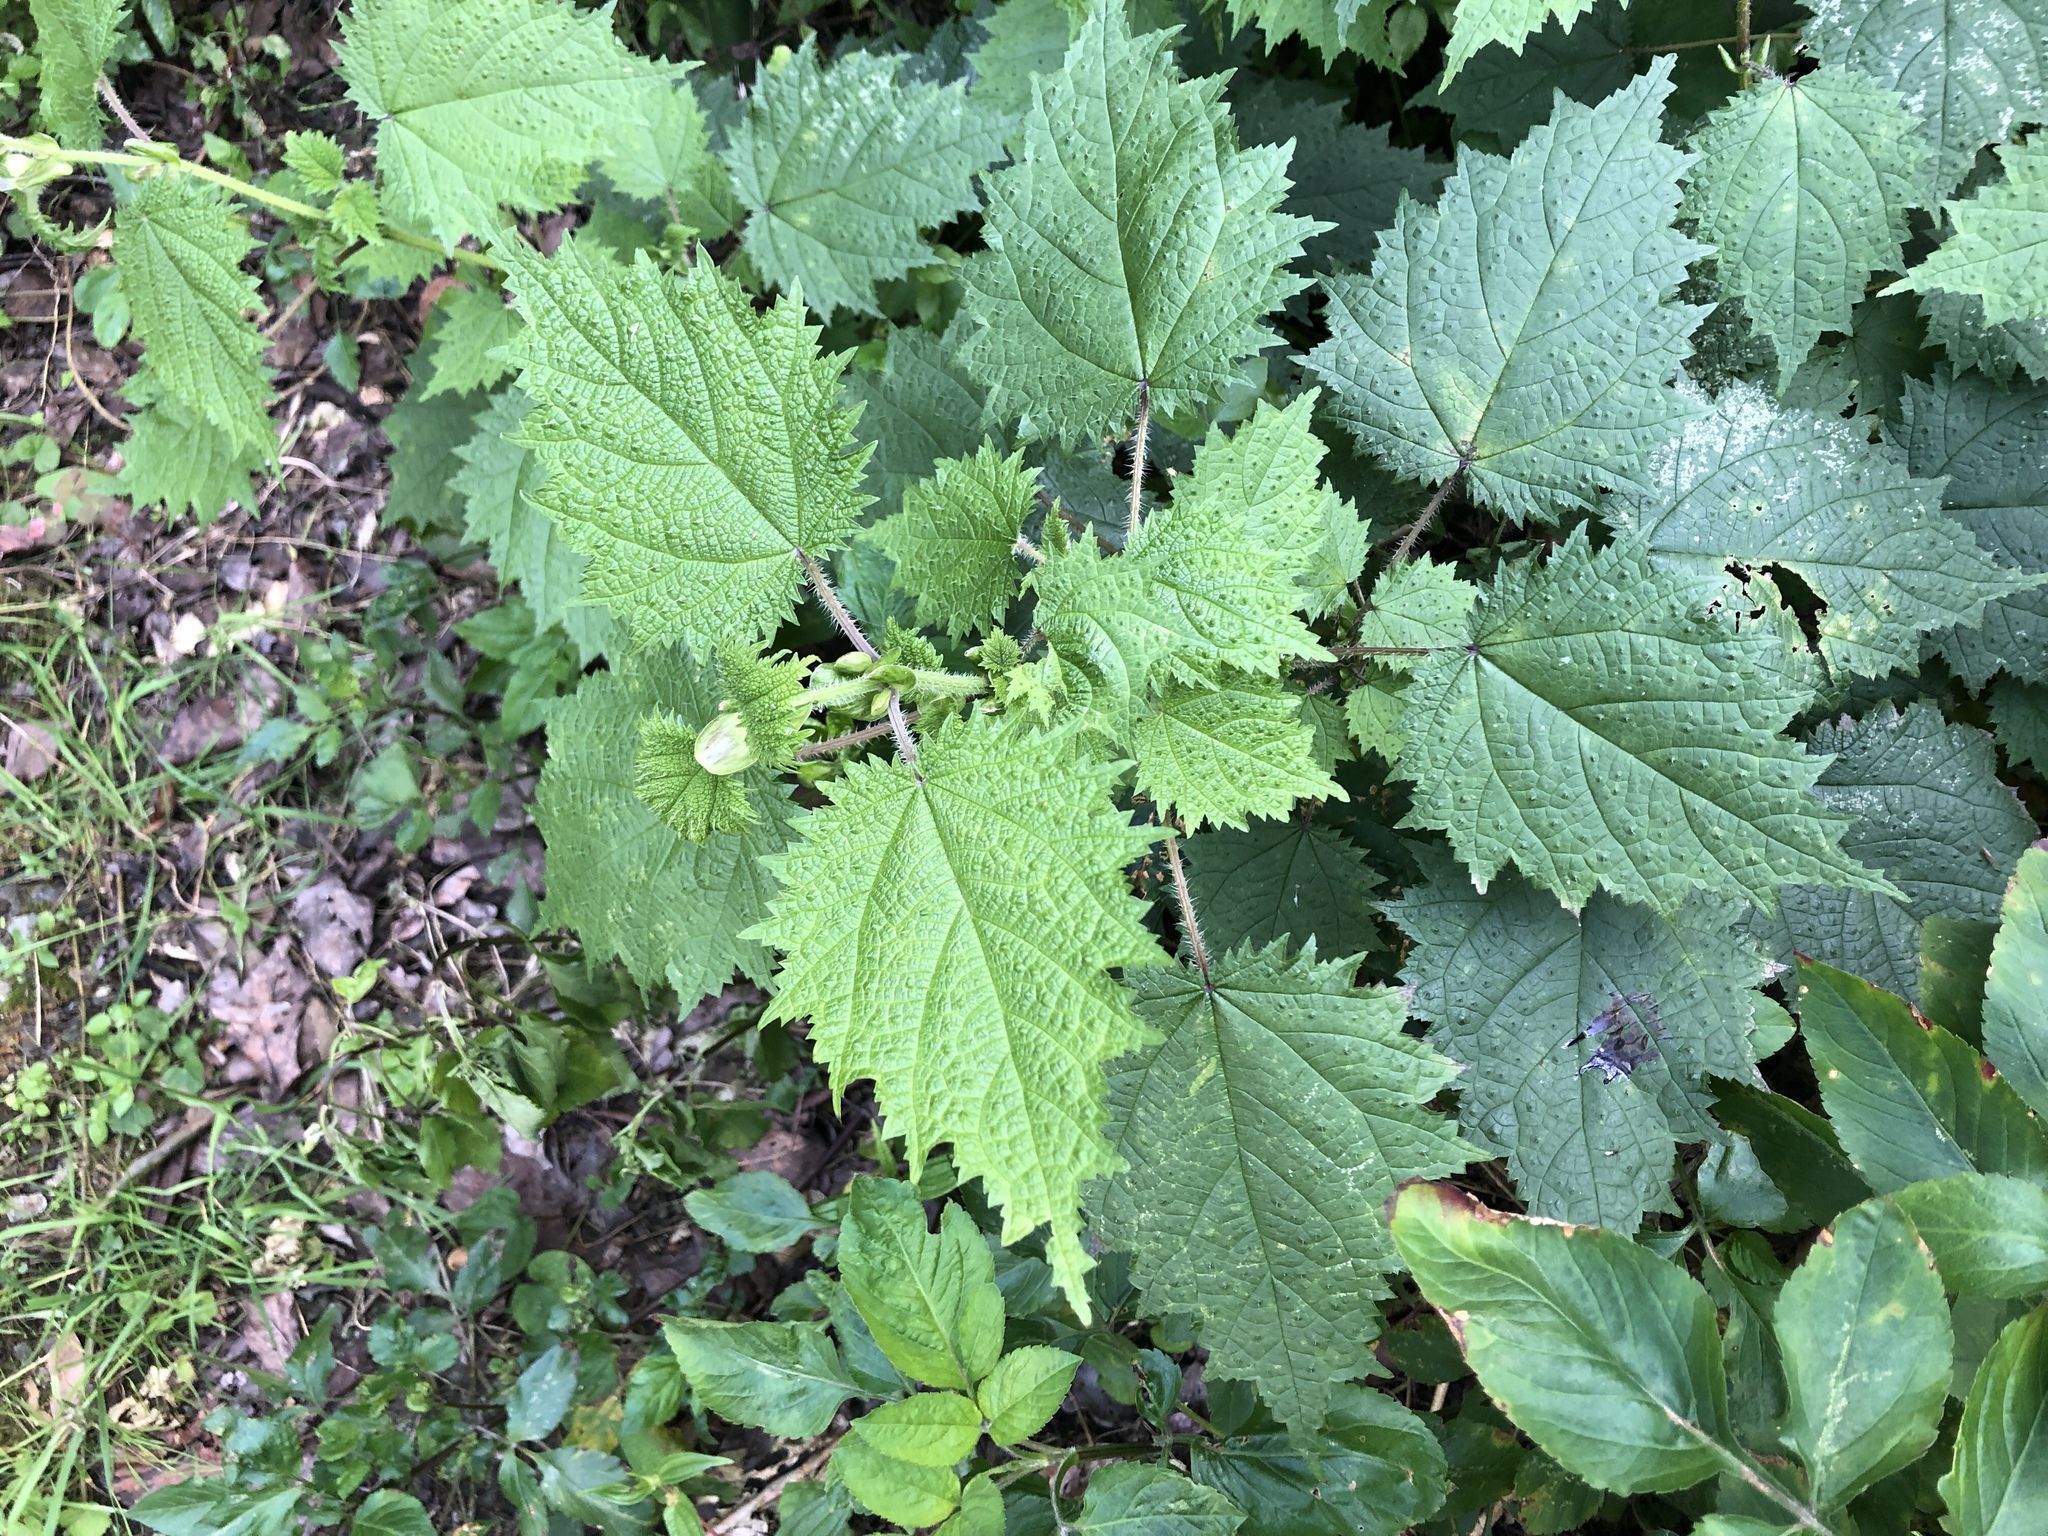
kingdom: Plantae
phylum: Tracheophyta
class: Magnoliopsida
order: Rosales
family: Urticaceae
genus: Urtica
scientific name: Urtica thunbergiana
